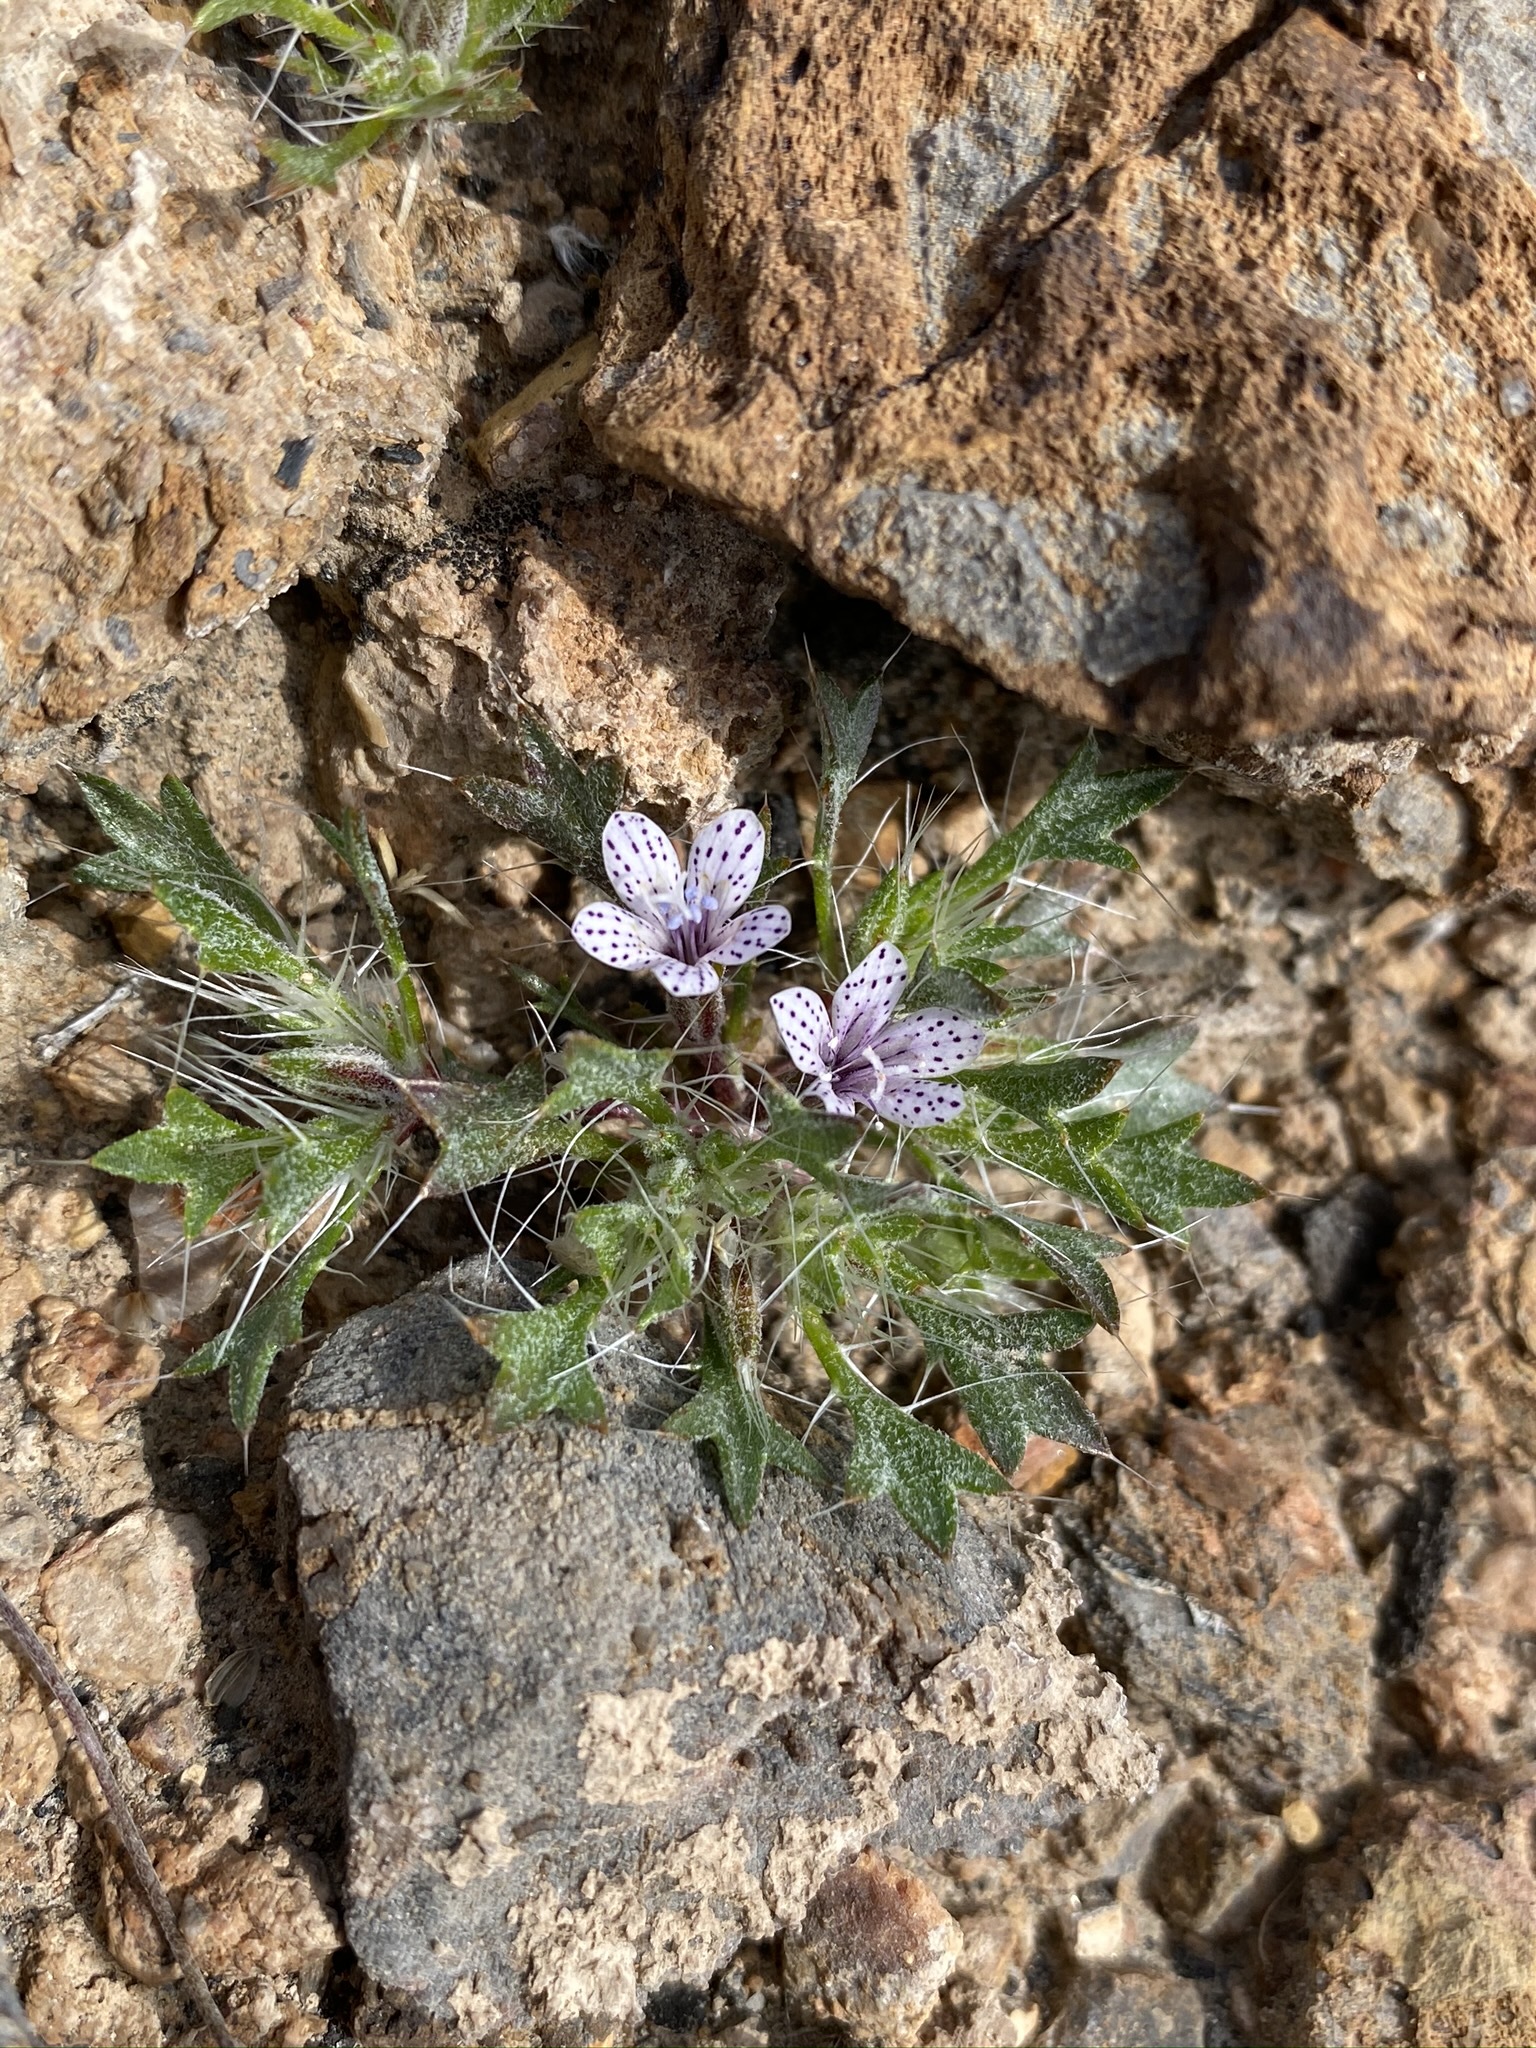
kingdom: Plantae
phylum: Tracheophyta
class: Magnoliopsida
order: Ericales
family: Polemoniaceae
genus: Langloisia
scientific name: Langloisia setosissima
